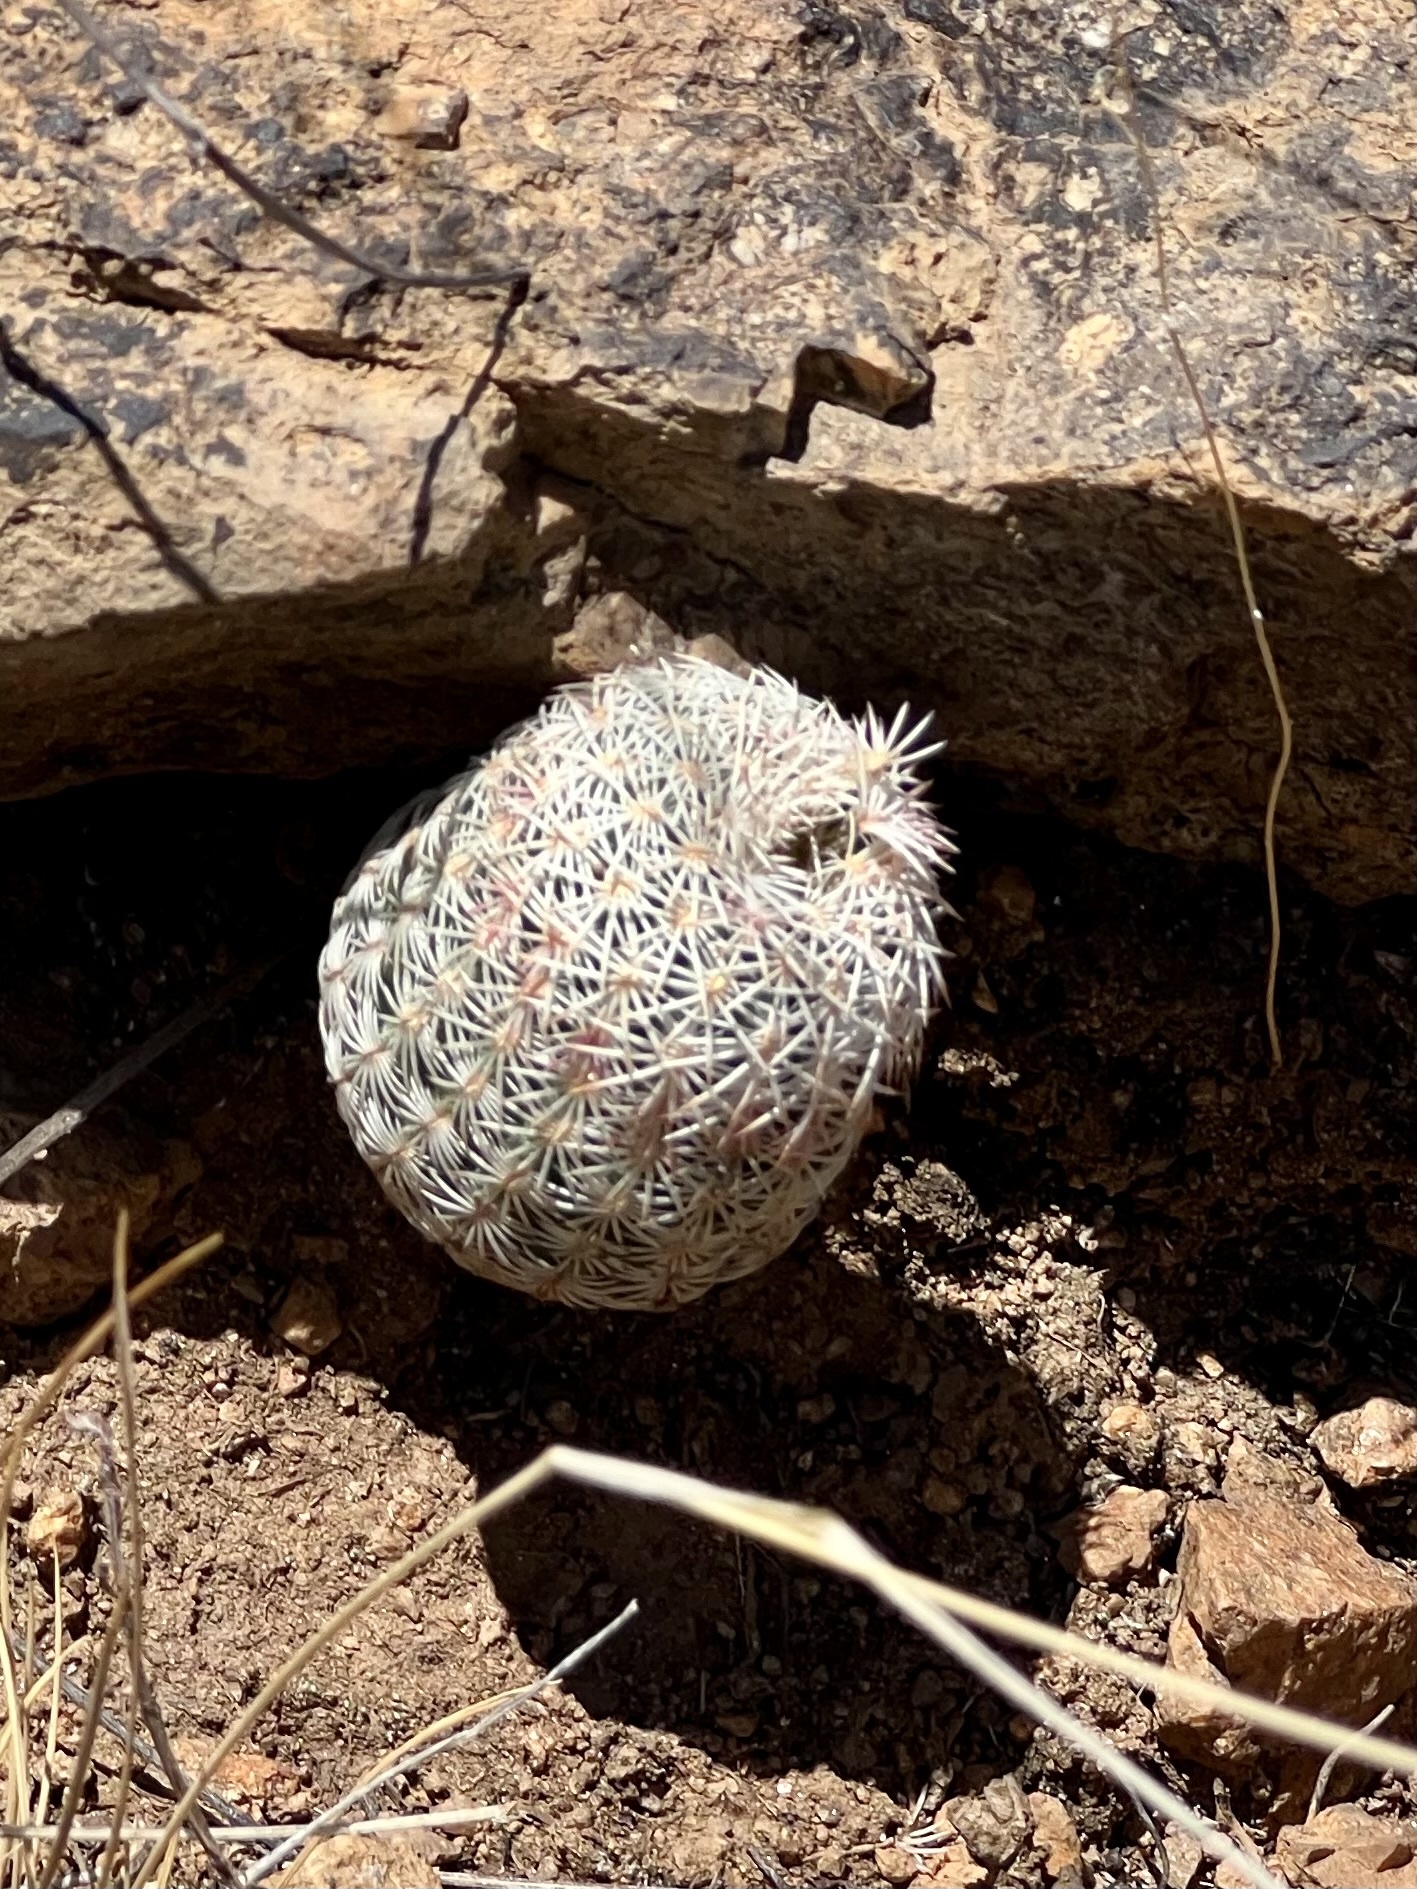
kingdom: Plantae
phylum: Tracheophyta
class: Magnoliopsida
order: Caryophyllales
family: Cactaceae
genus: Echinocereus
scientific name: Echinocereus rigidissimus
